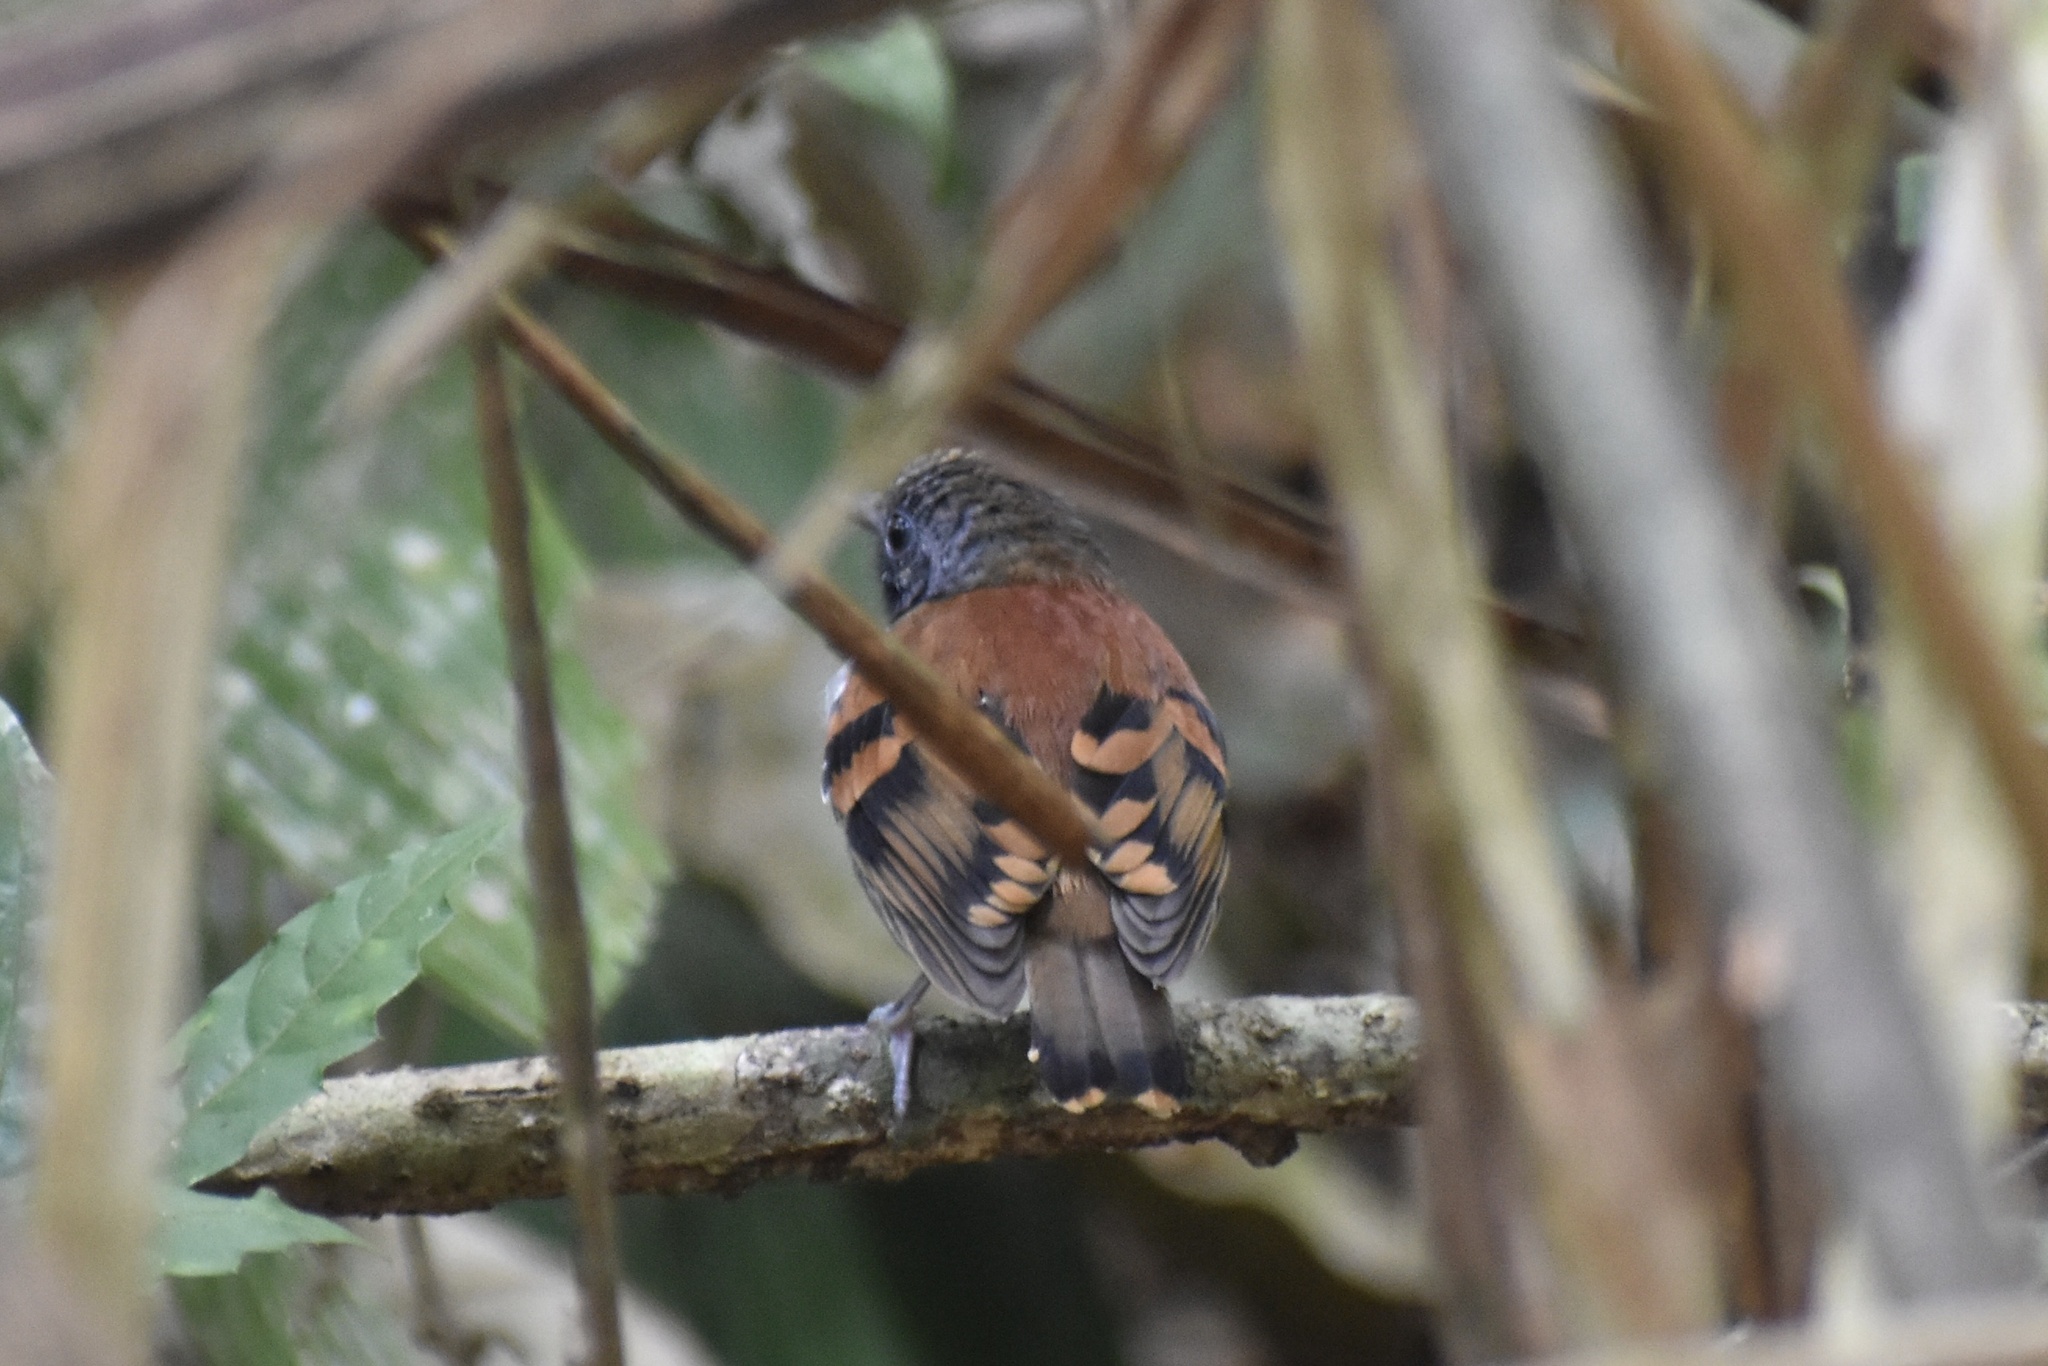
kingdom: Animalia
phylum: Chordata
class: Aves
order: Passeriformes
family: Thamnophilidae
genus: Hylophylax
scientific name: Hylophylax naevioides
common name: Spotted antbird
